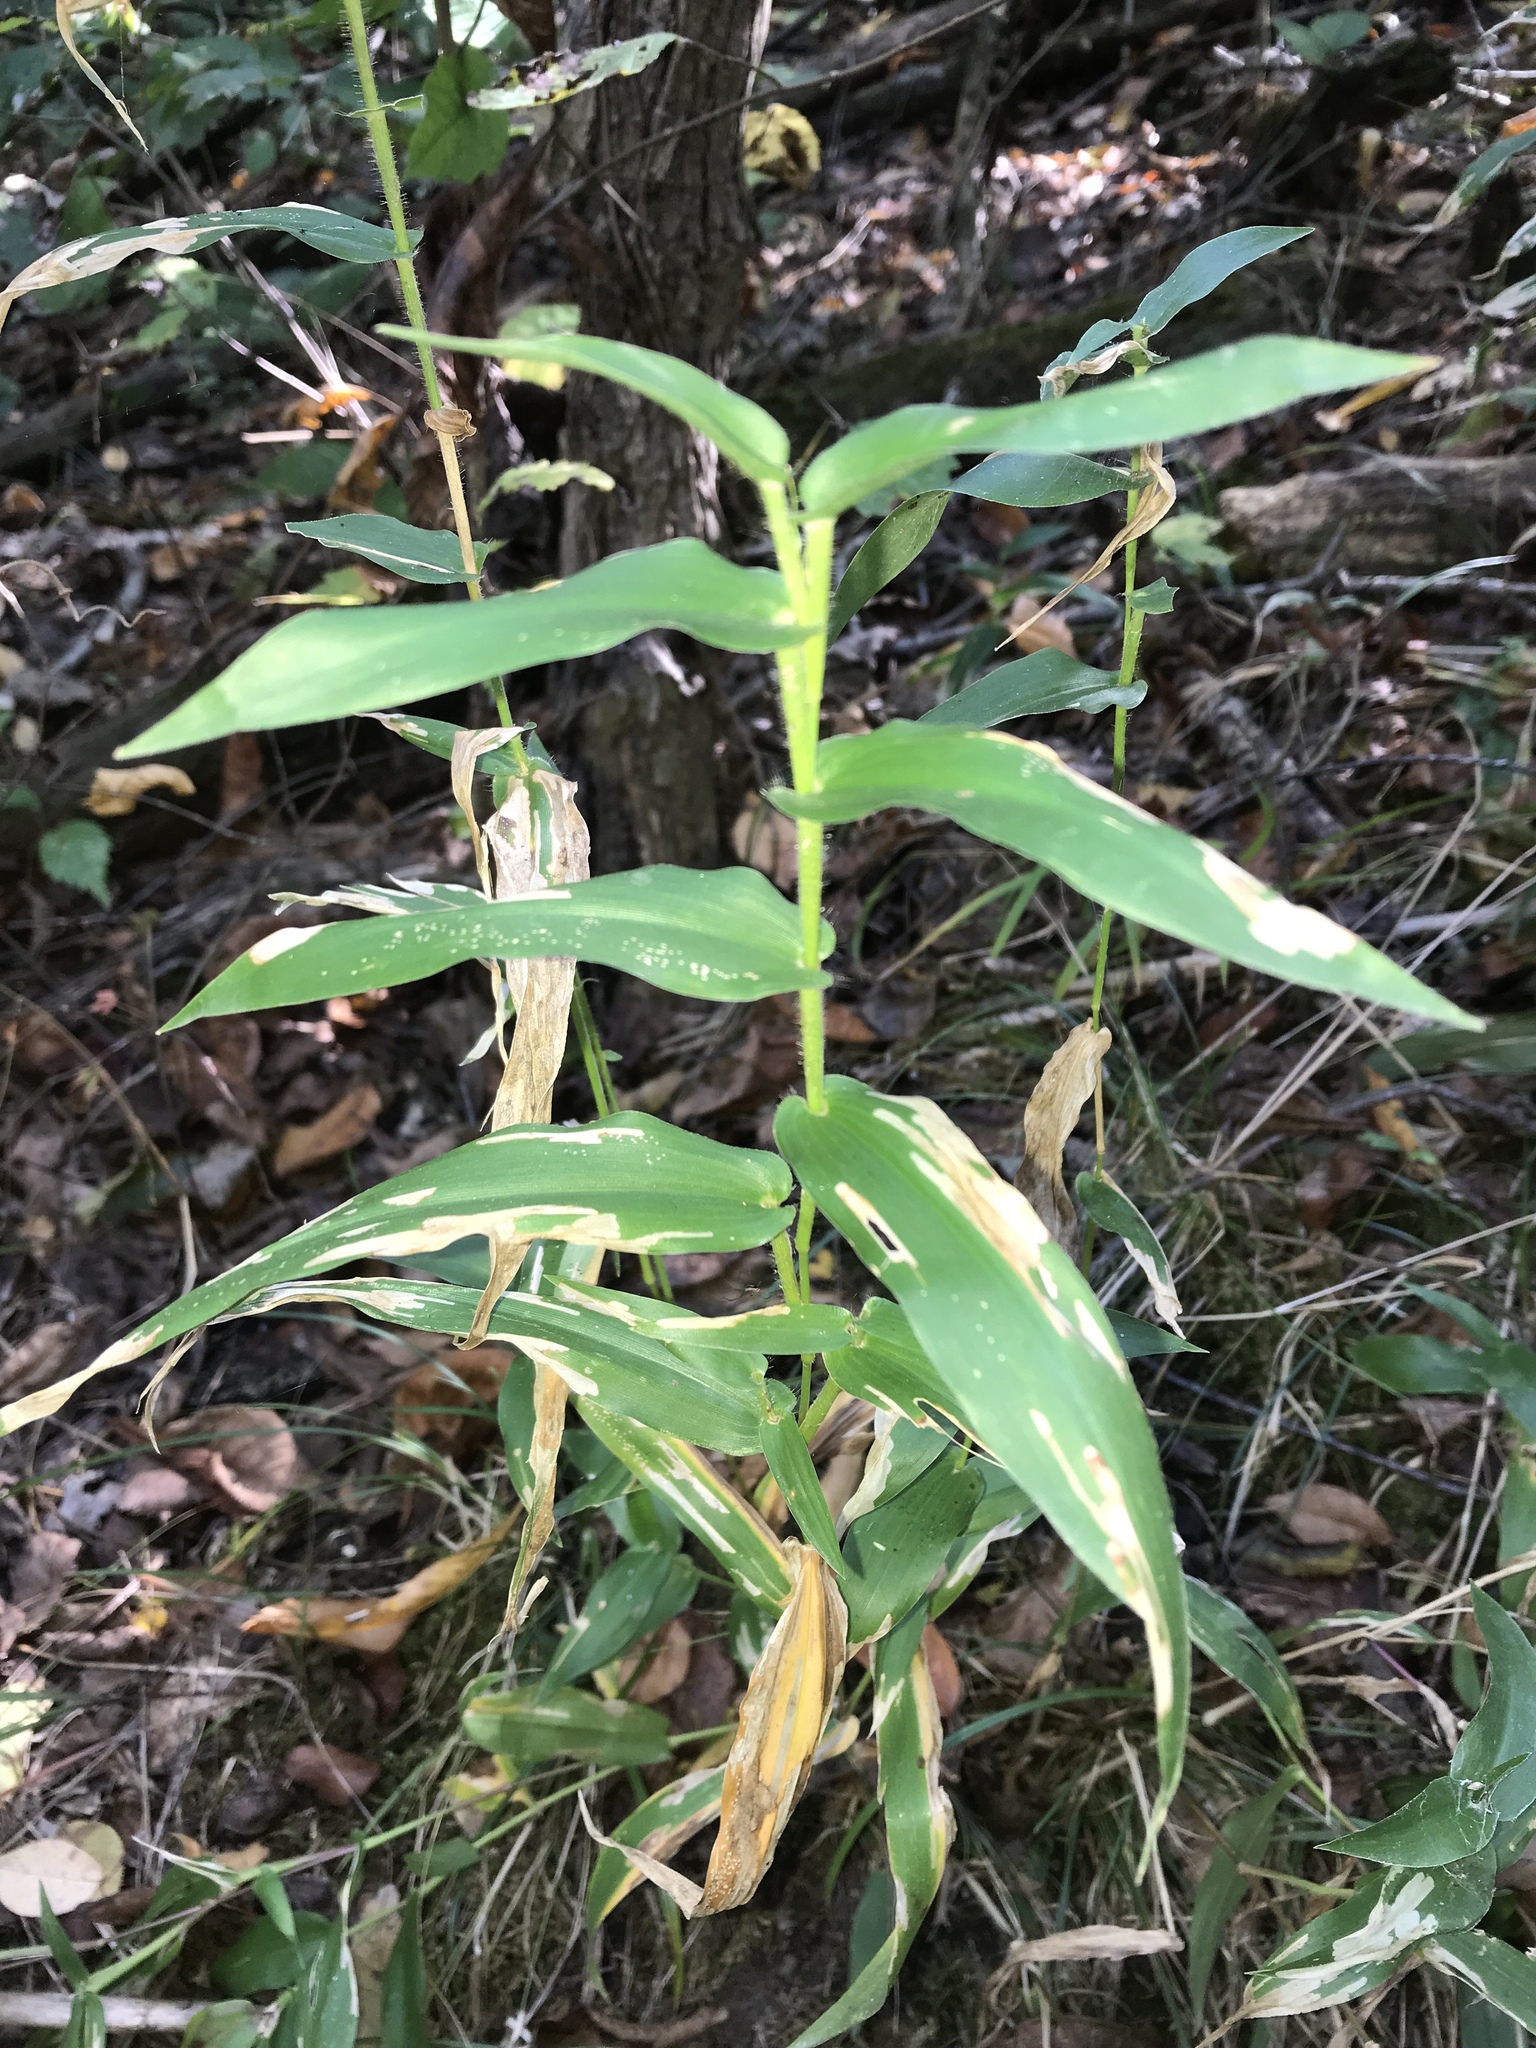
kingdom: Plantae
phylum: Tracheophyta
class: Liliopsida
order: Poales
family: Poaceae
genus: Dichanthelium
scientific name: Dichanthelium clandestinum
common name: Deer-tongue grass
